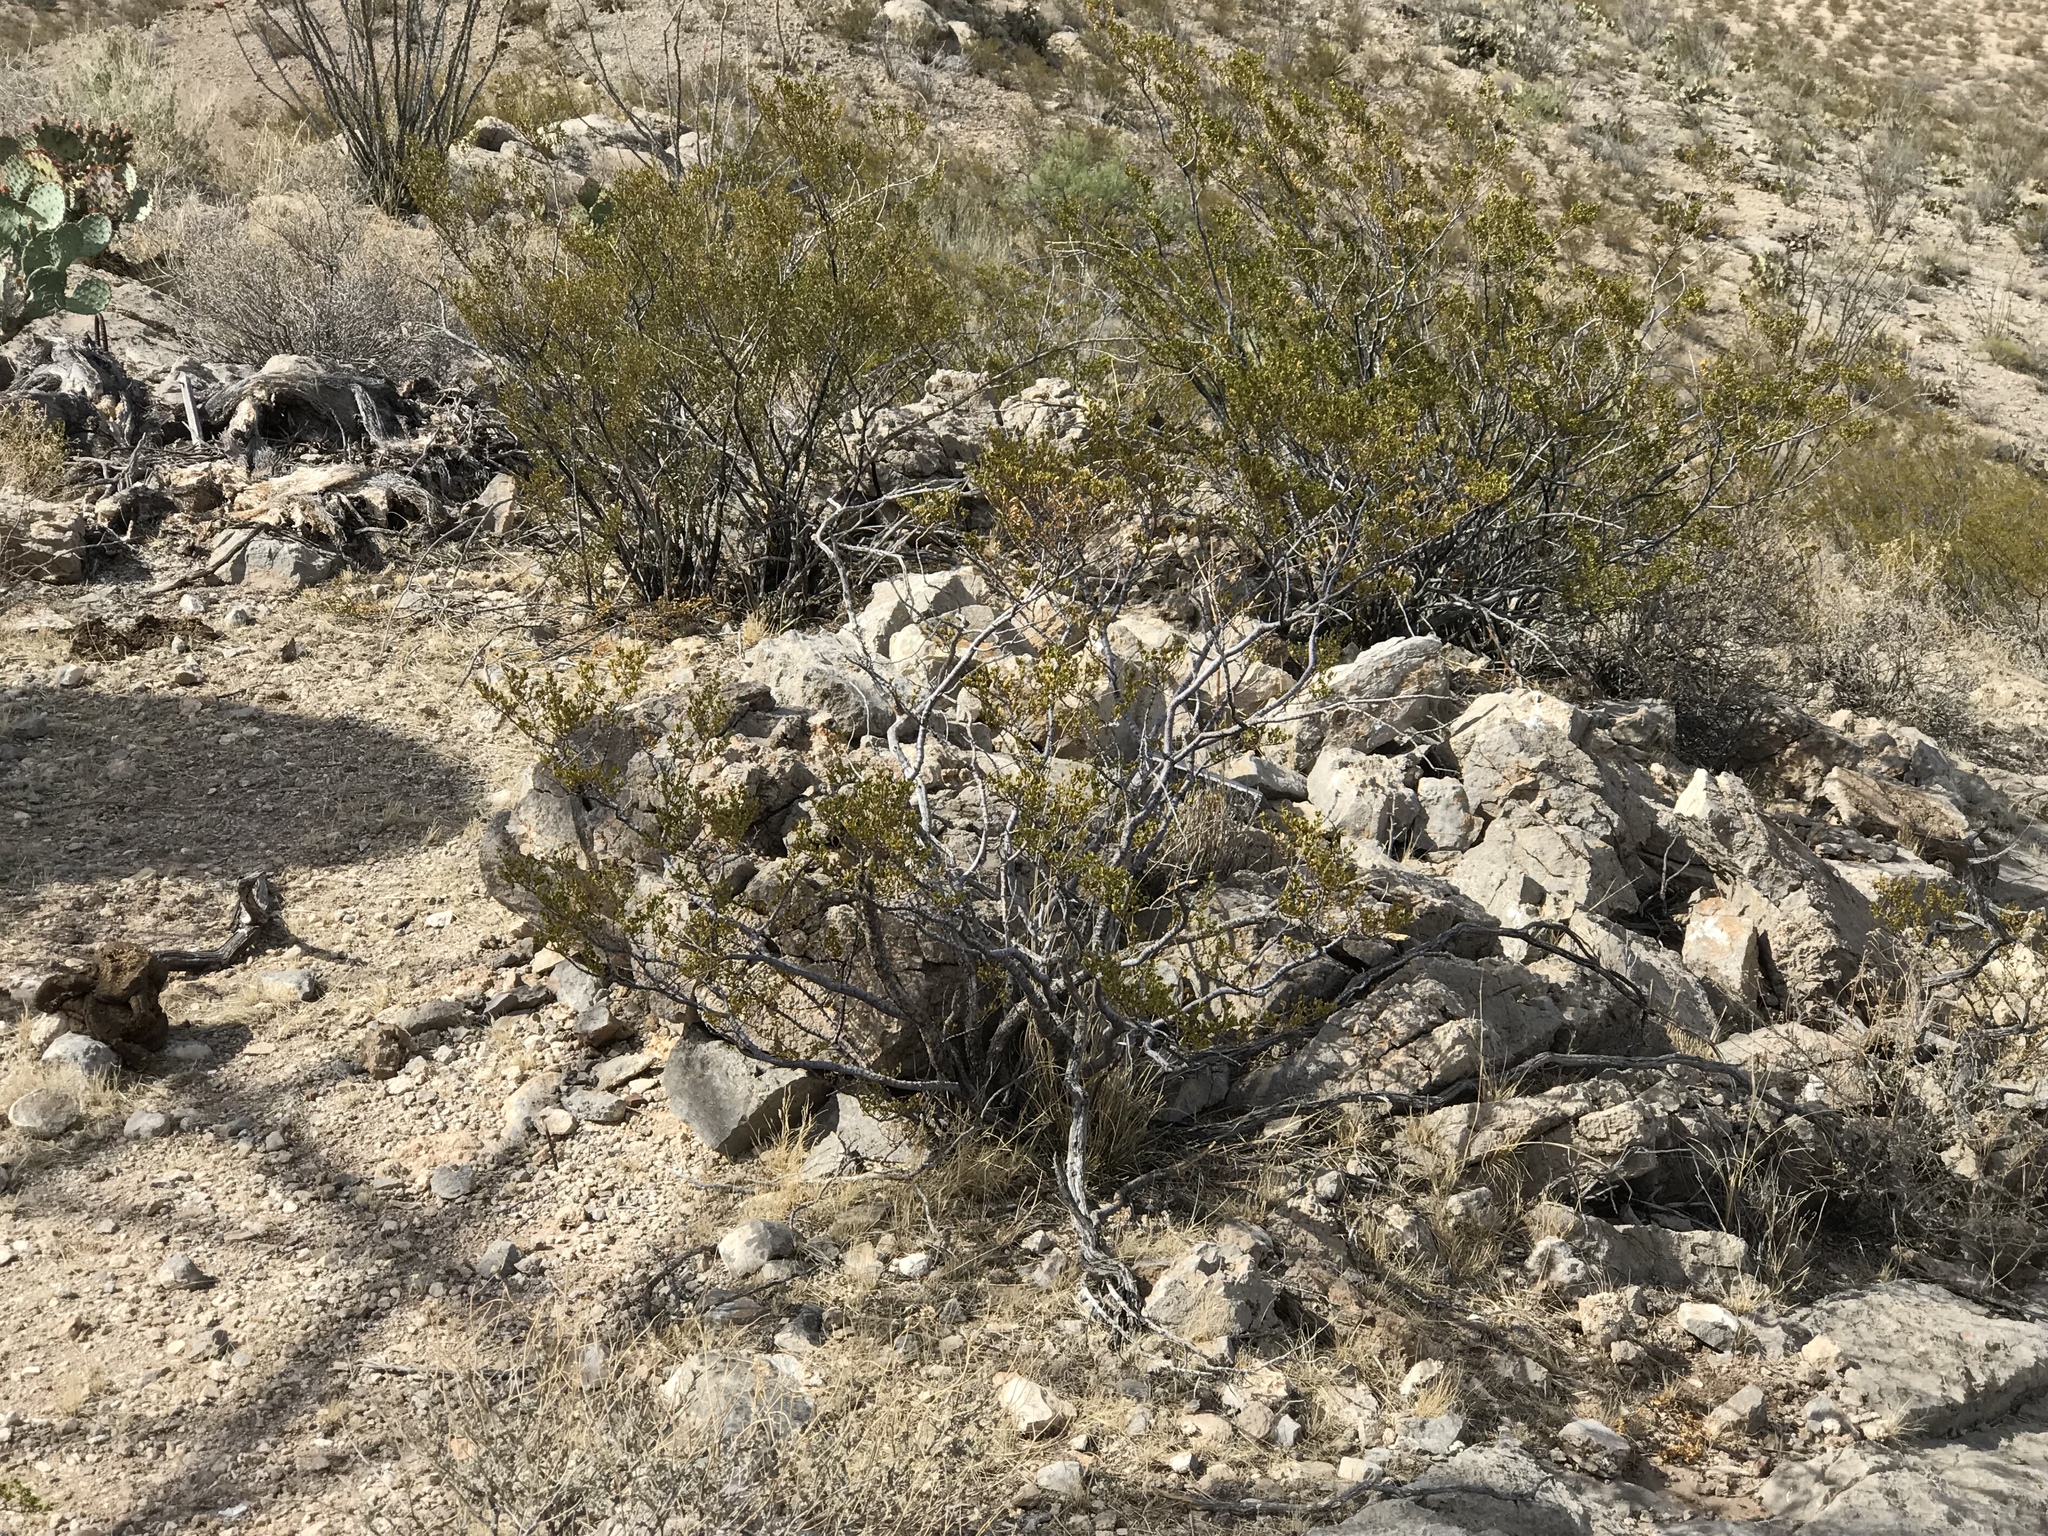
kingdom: Plantae
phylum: Tracheophyta
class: Magnoliopsida
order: Zygophyllales
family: Zygophyllaceae
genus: Larrea
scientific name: Larrea tridentata
